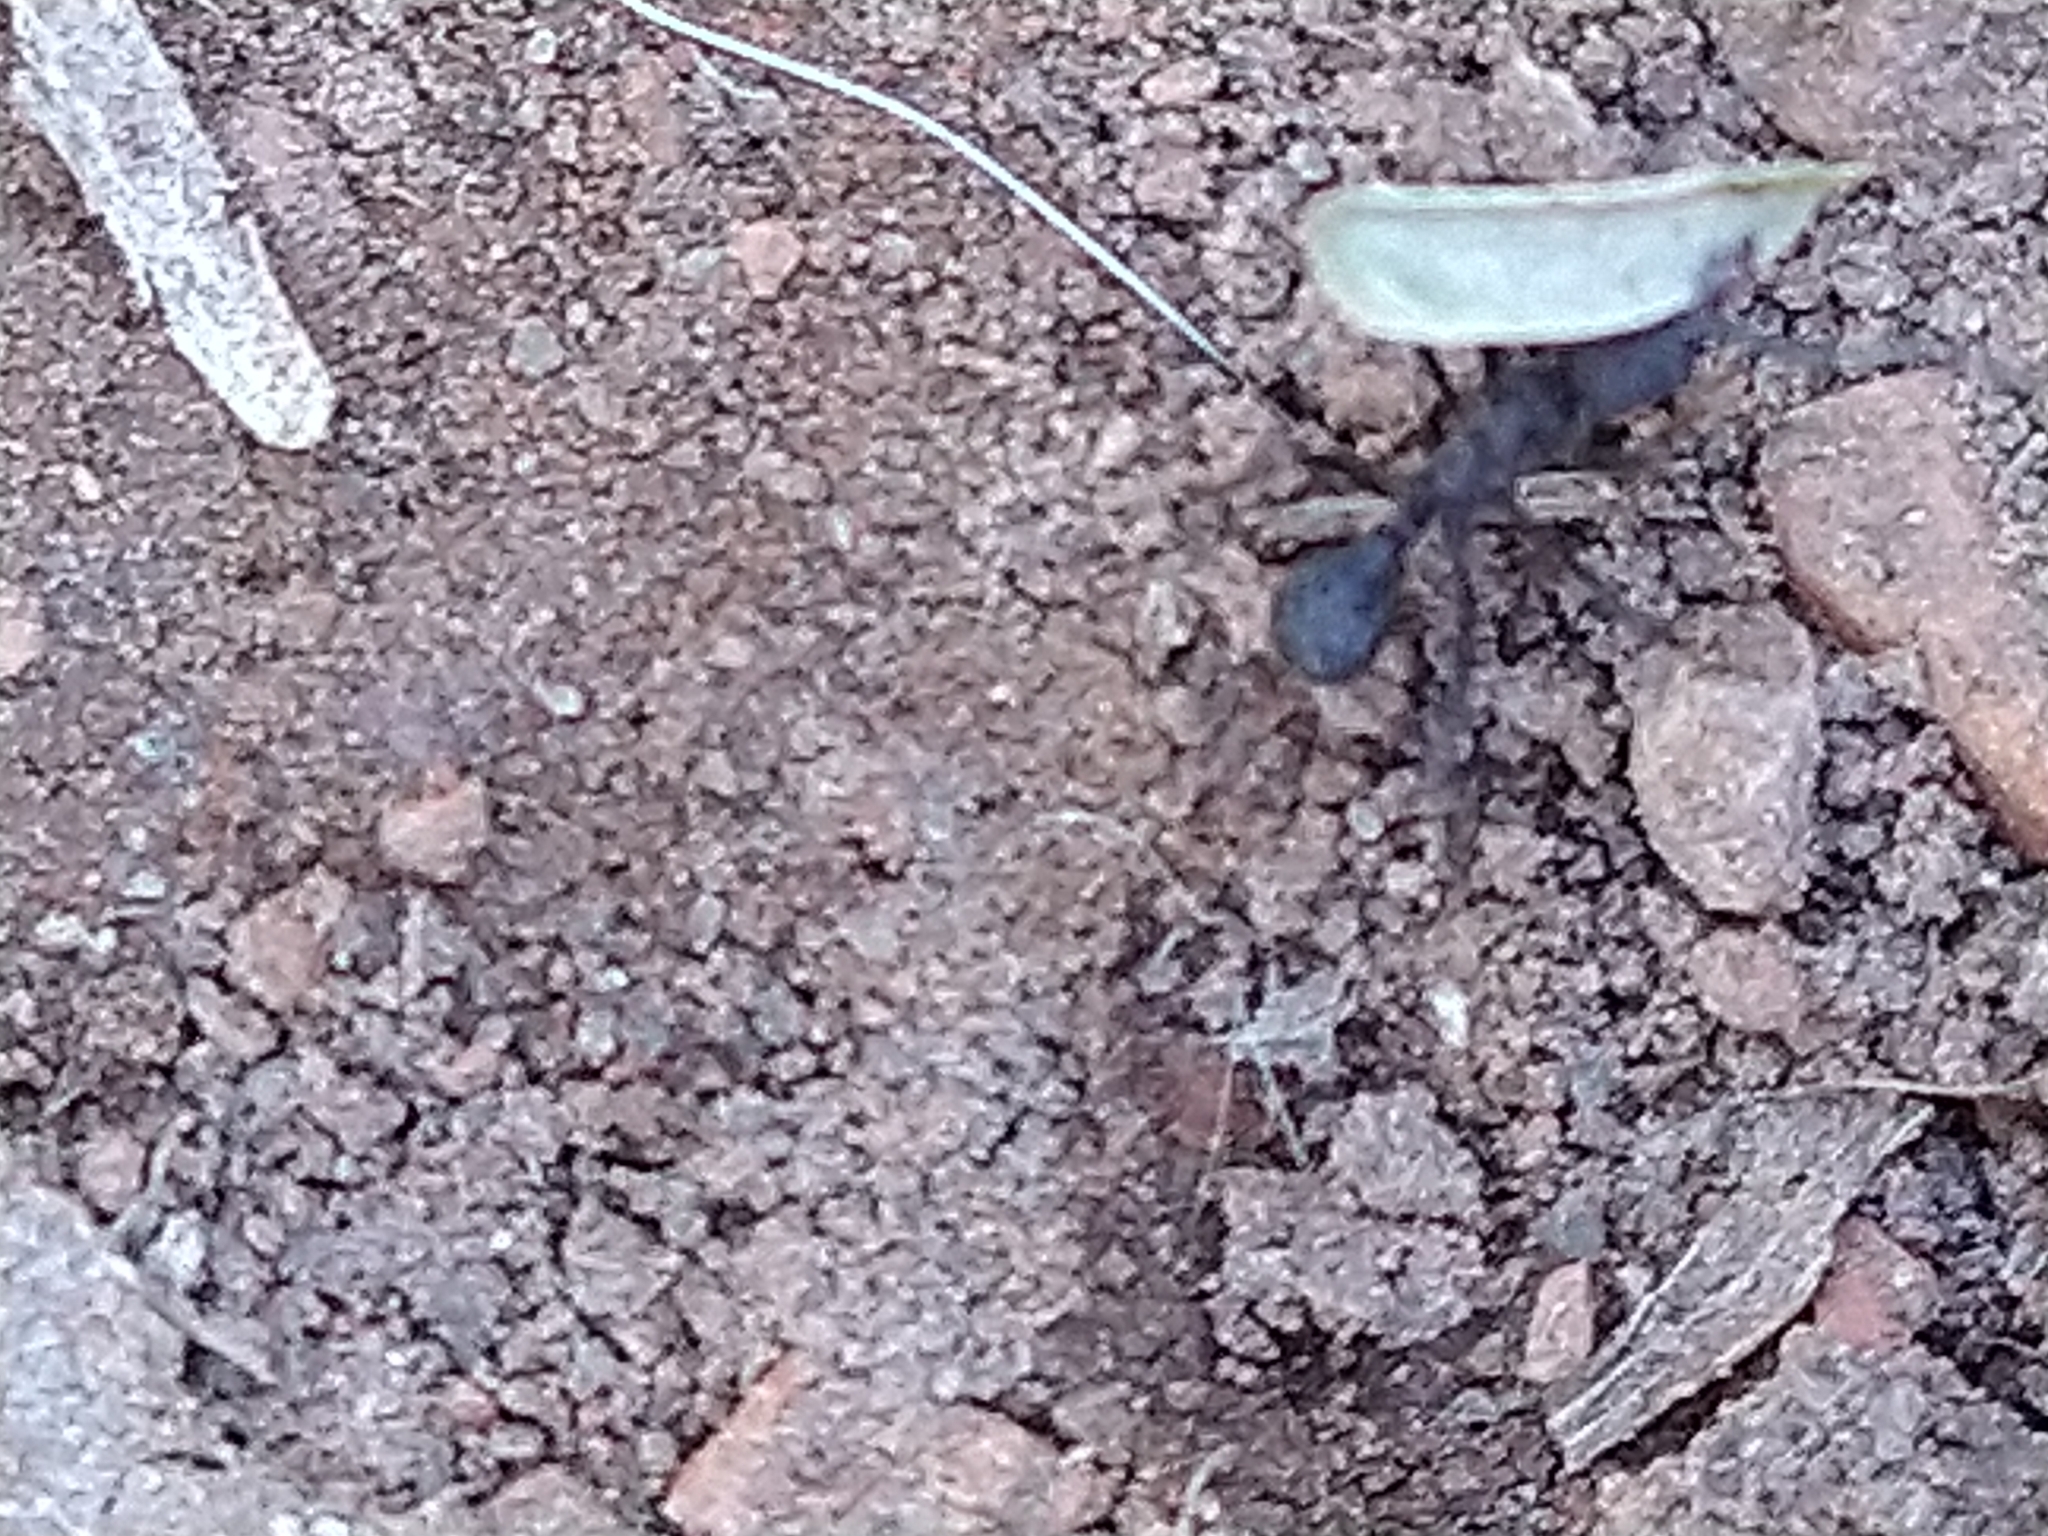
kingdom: Animalia
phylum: Arthropoda
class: Insecta
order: Hymenoptera
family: Formicidae
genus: Acromyrmex
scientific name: Acromyrmex
